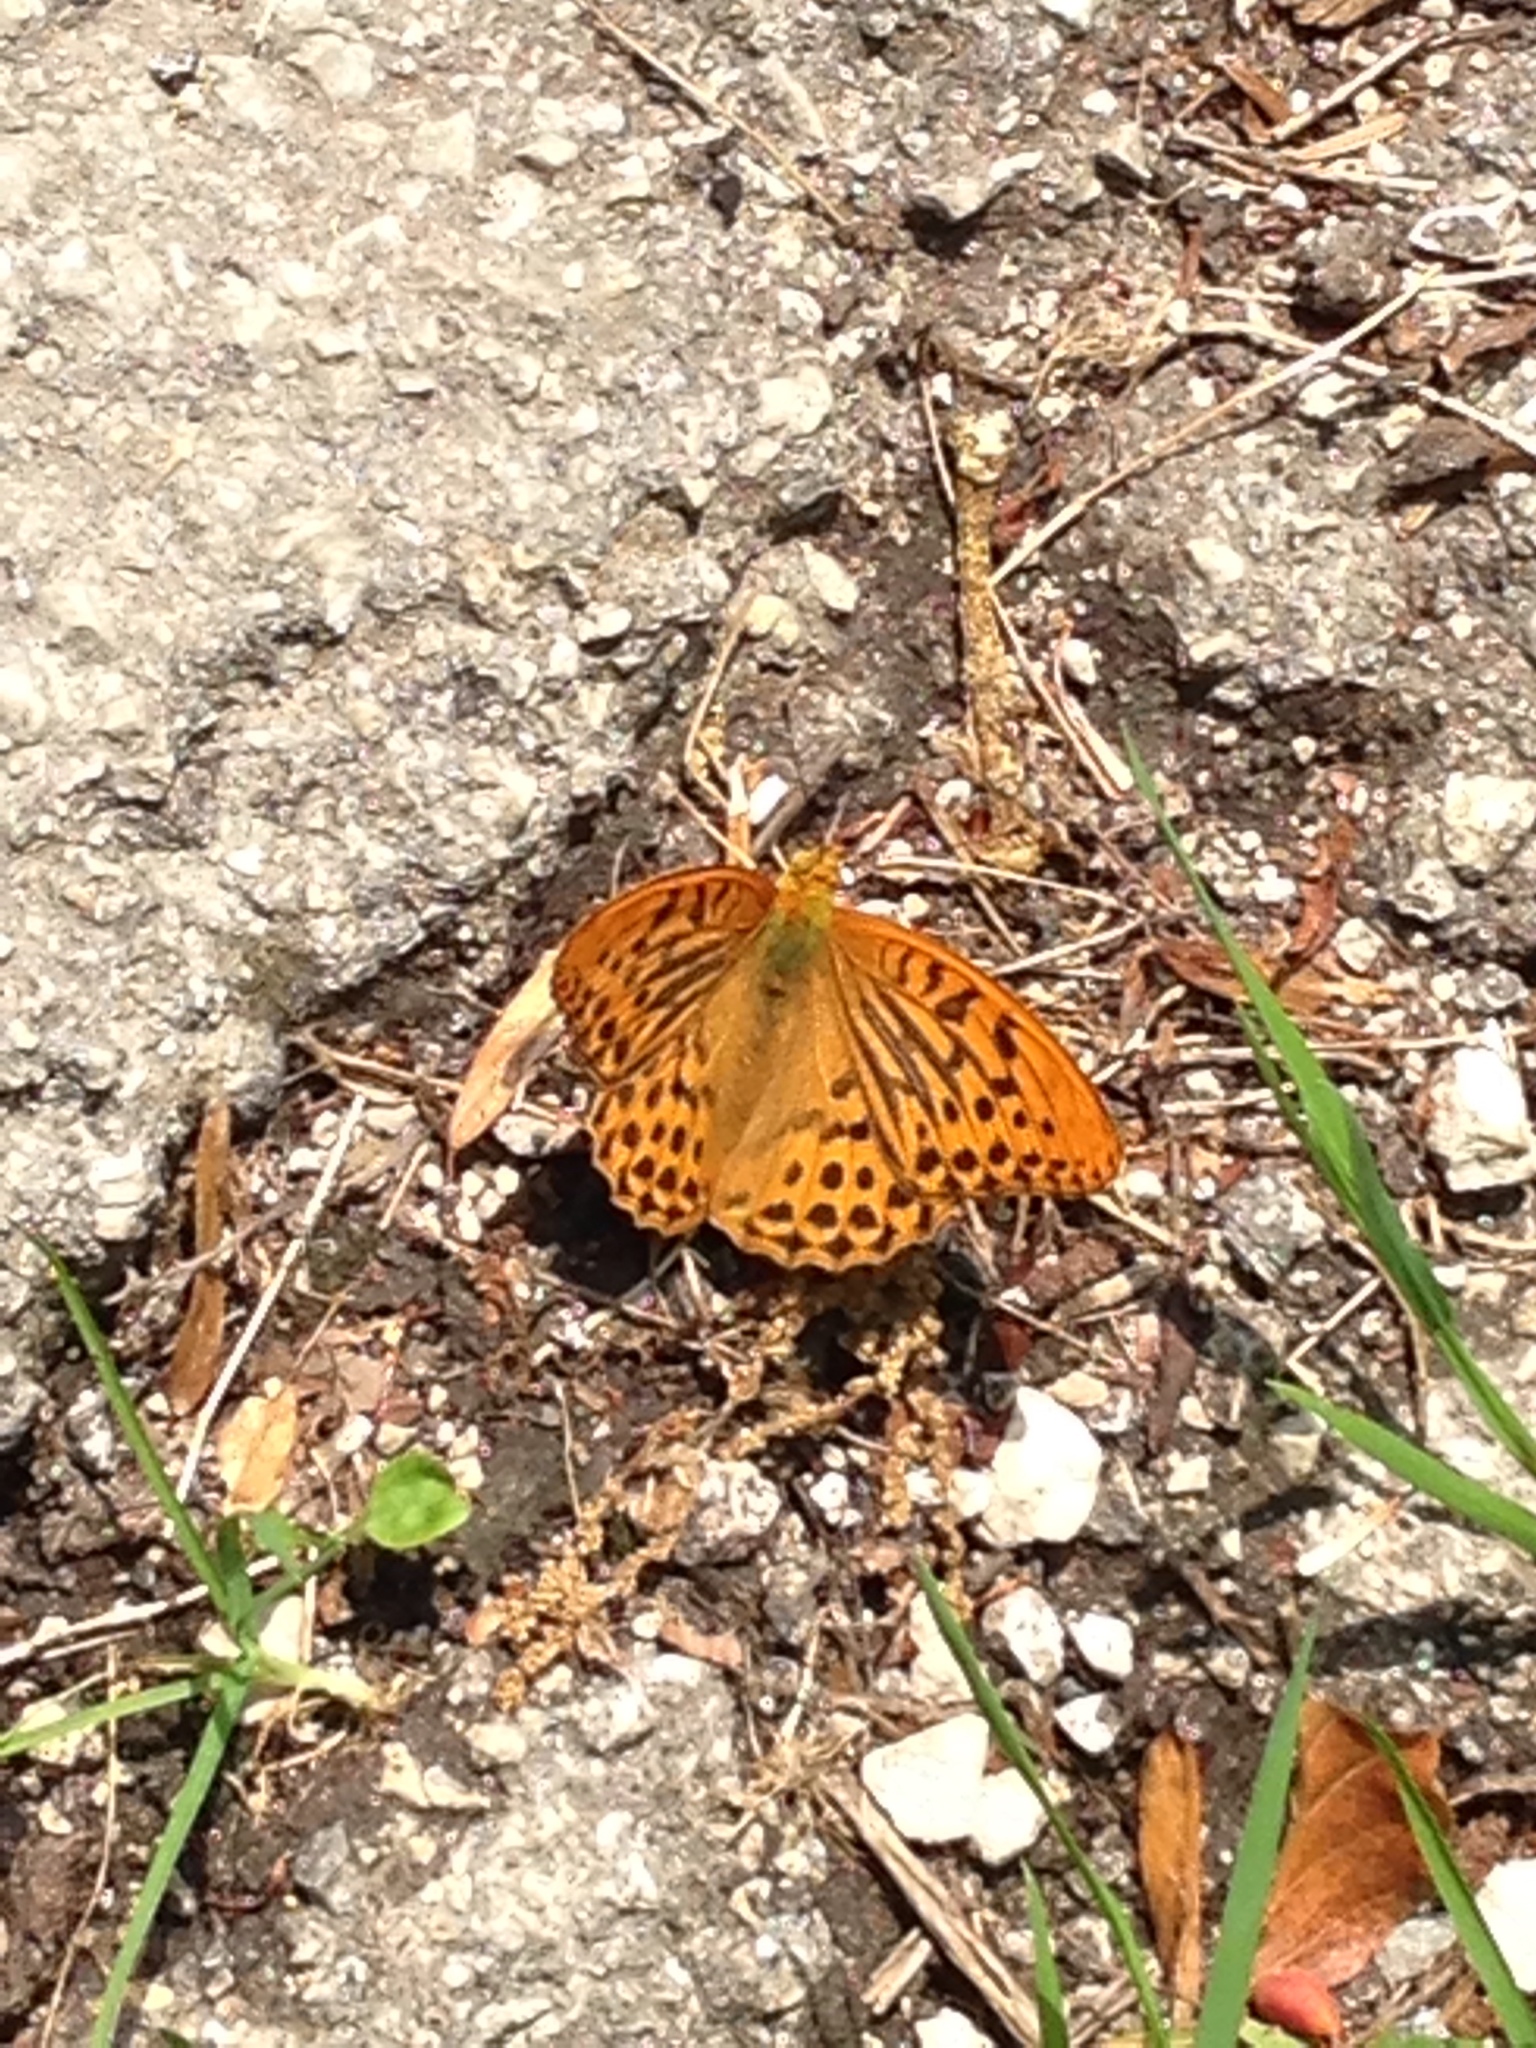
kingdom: Animalia
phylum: Arthropoda
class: Insecta
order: Lepidoptera
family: Nymphalidae
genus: Argynnis
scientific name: Argynnis paphia
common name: Silver-washed fritillary
